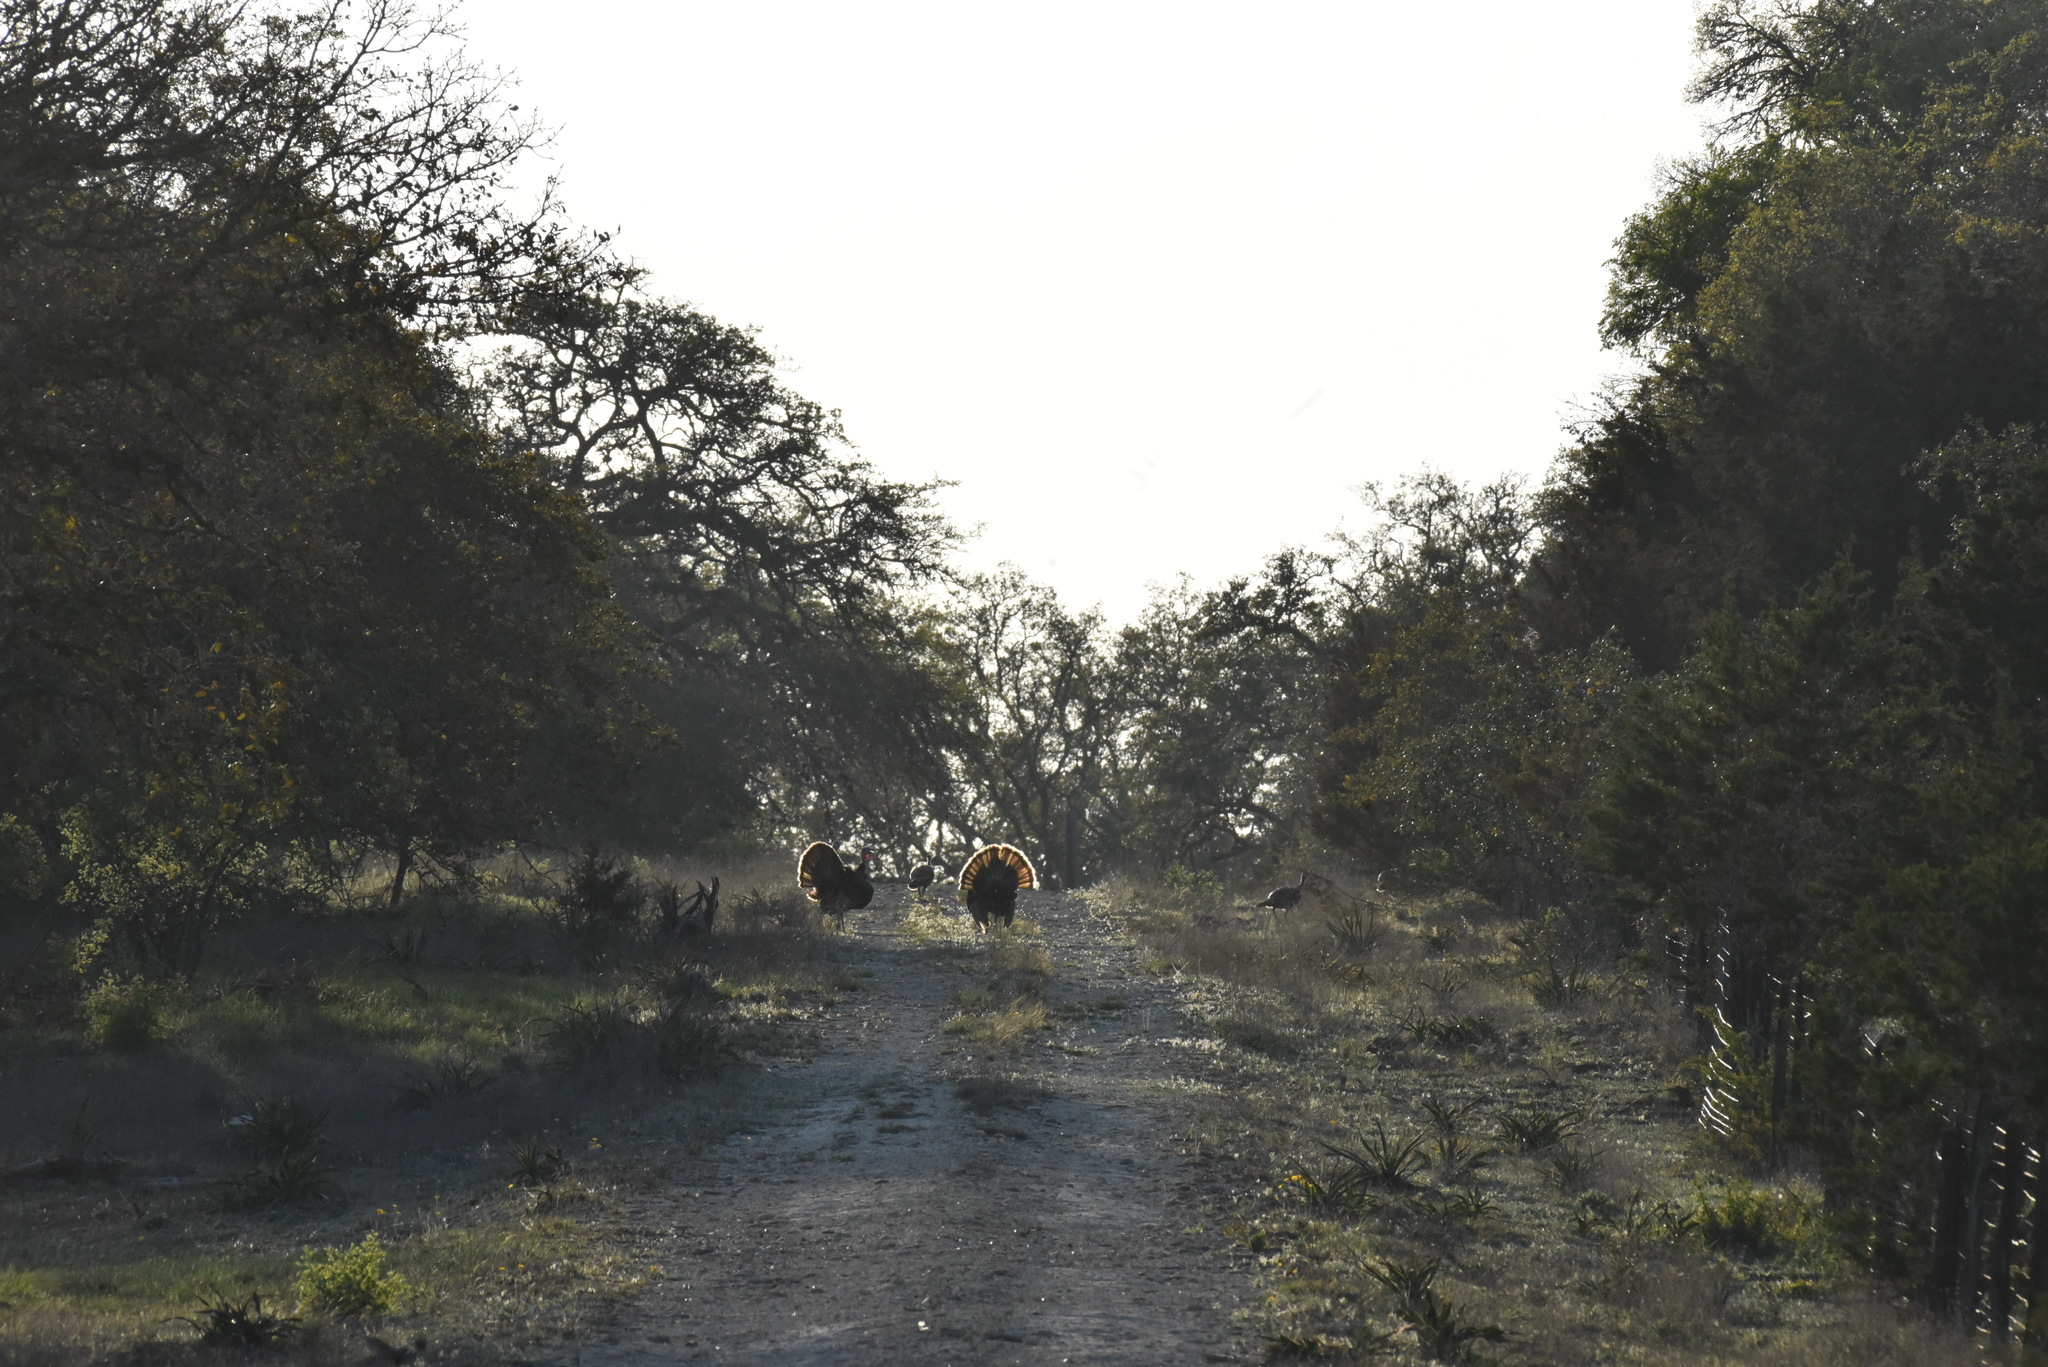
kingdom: Animalia
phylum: Chordata
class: Aves
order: Galliformes
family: Phasianidae
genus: Meleagris
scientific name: Meleagris gallopavo
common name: Wild turkey
